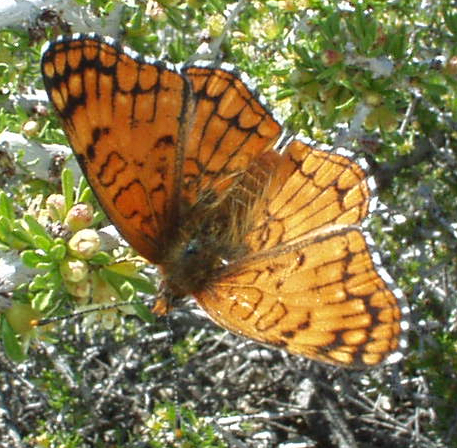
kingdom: Animalia
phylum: Arthropoda
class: Insecta
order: Lepidoptera
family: Nymphalidae
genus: Chlosyne
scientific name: Chlosyne acastus
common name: Sagebrush checkerspot
